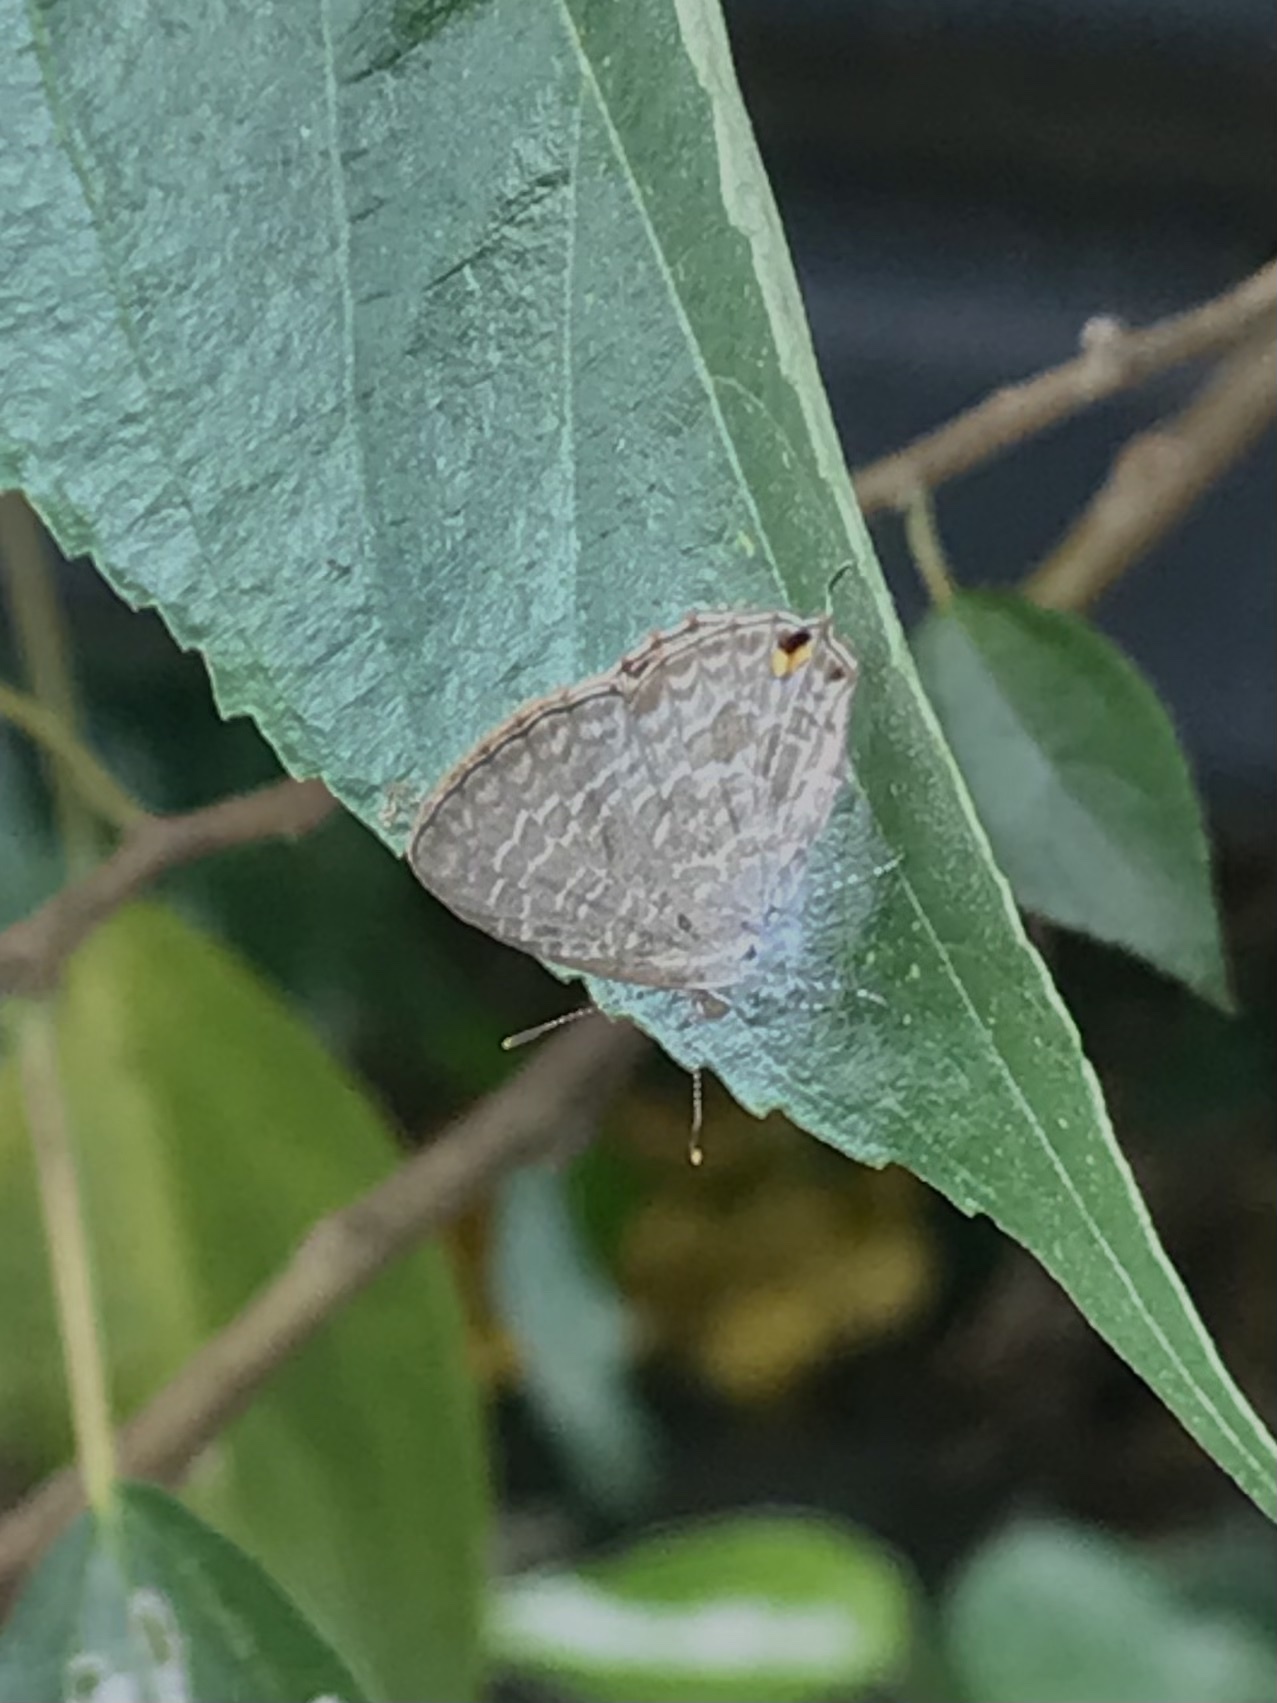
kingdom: Animalia
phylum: Arthropoda
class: Insecta
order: Lepidoptera
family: Lycaenidae
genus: Catopyrops
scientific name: Catopyrops florinda
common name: Speckled line-blue
